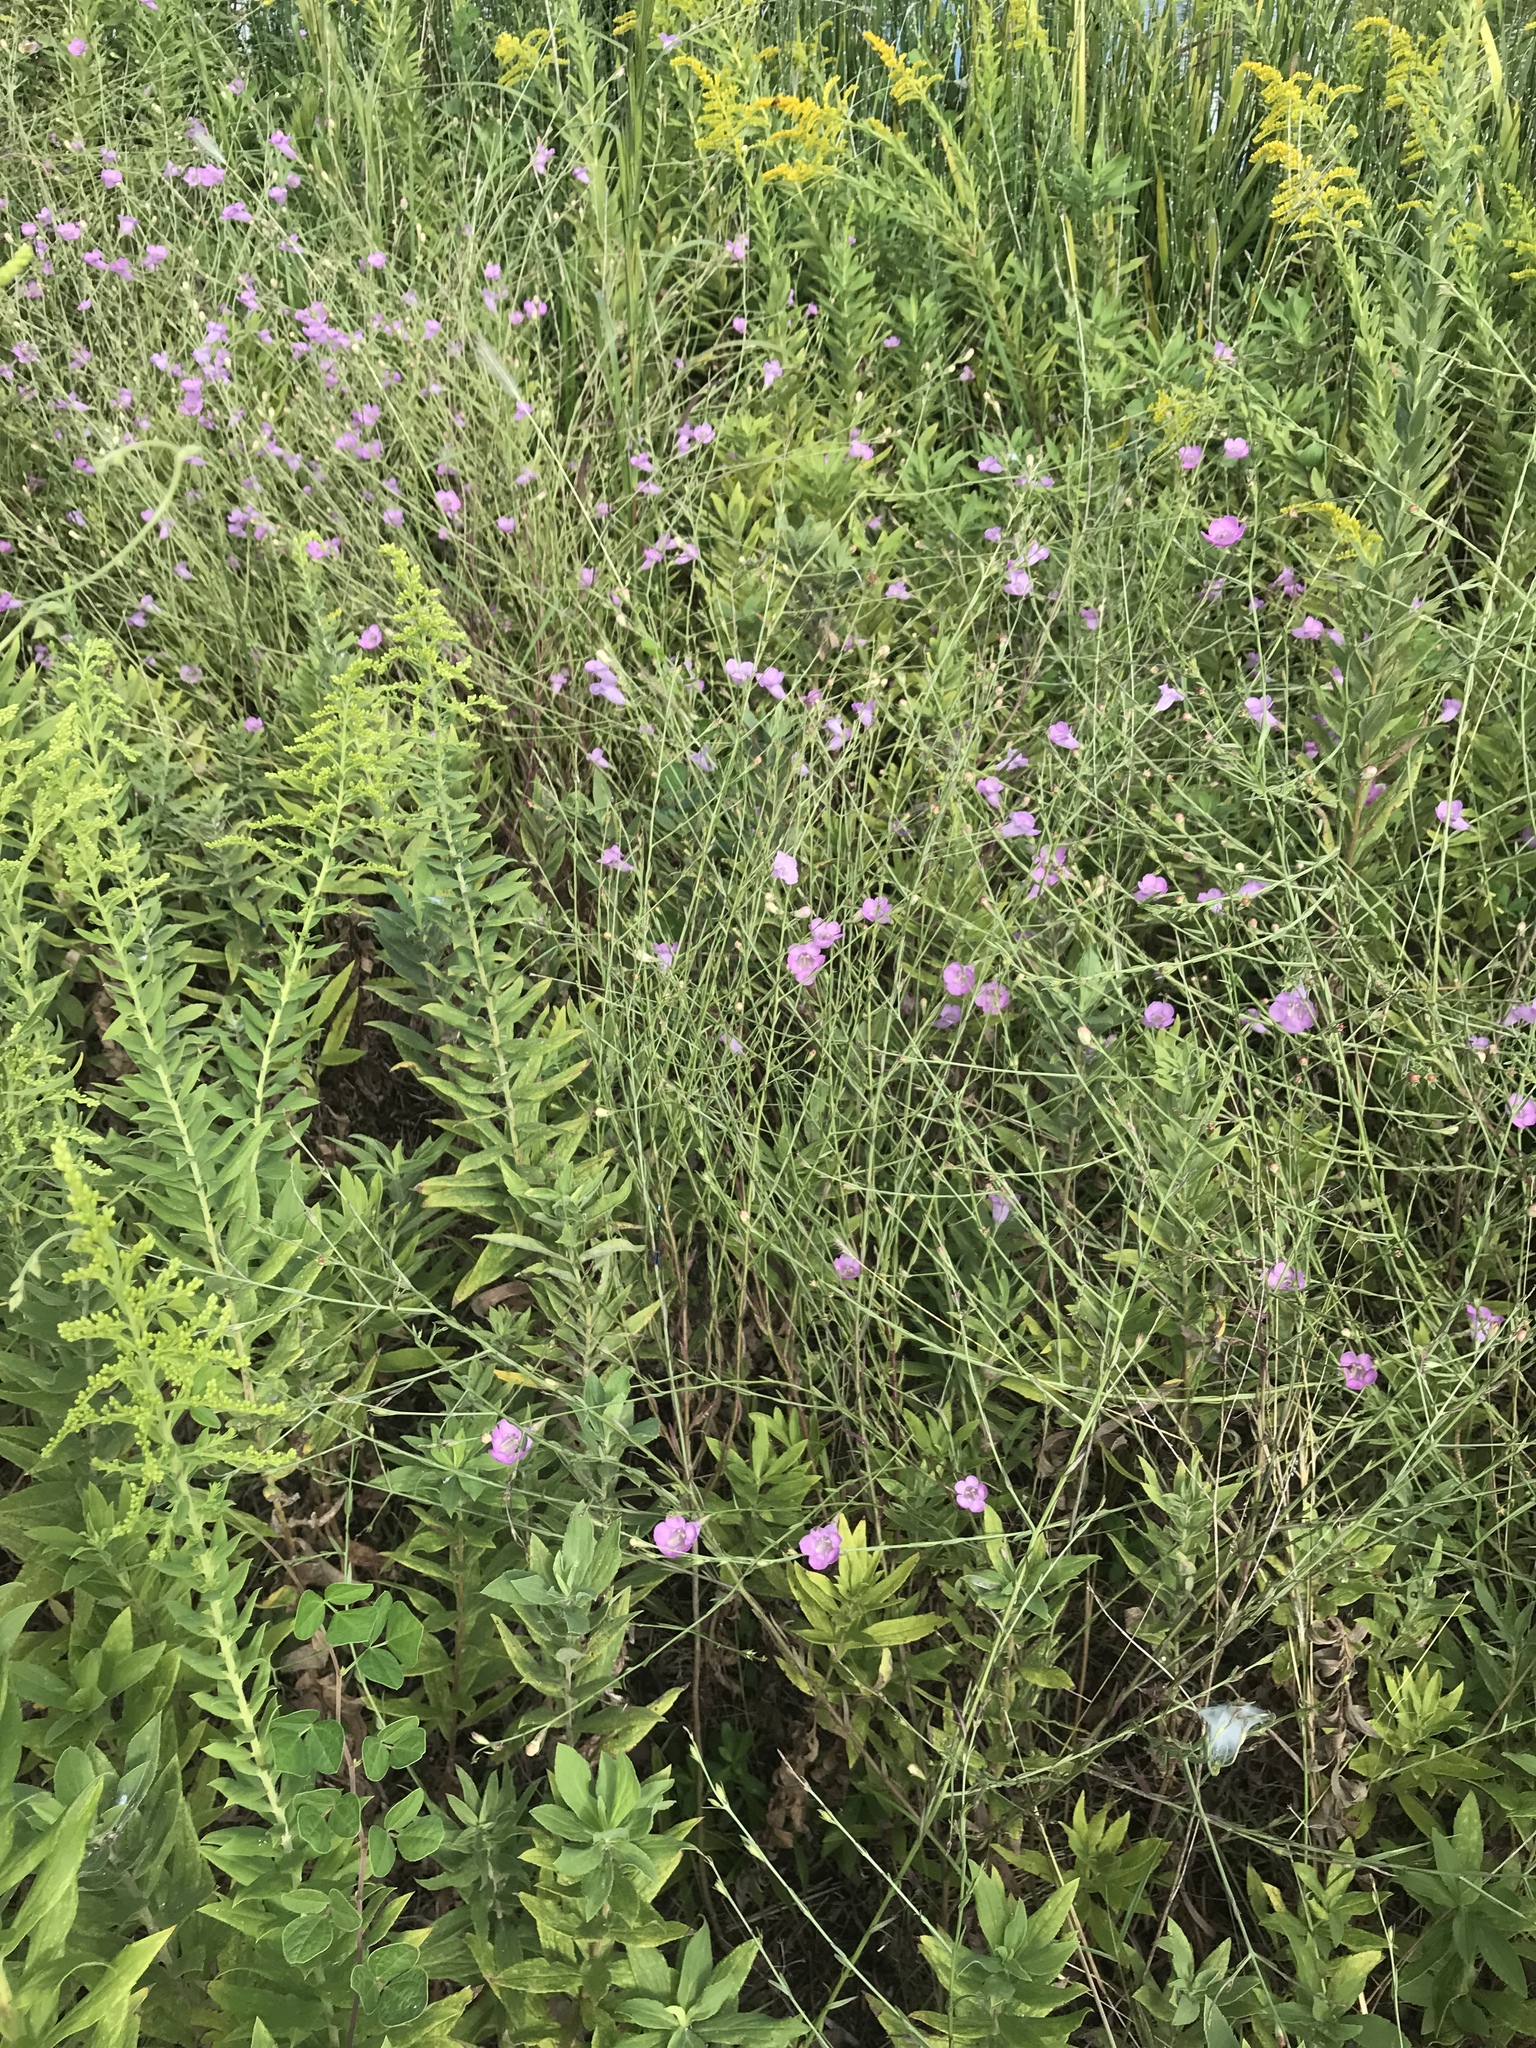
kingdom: Plantae
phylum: Tracheophyta
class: Magnoliopsida
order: Lamiales
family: Orobanchaceae
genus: Agalinis
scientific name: Agalinis heterophylla
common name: Prairie agalinis
